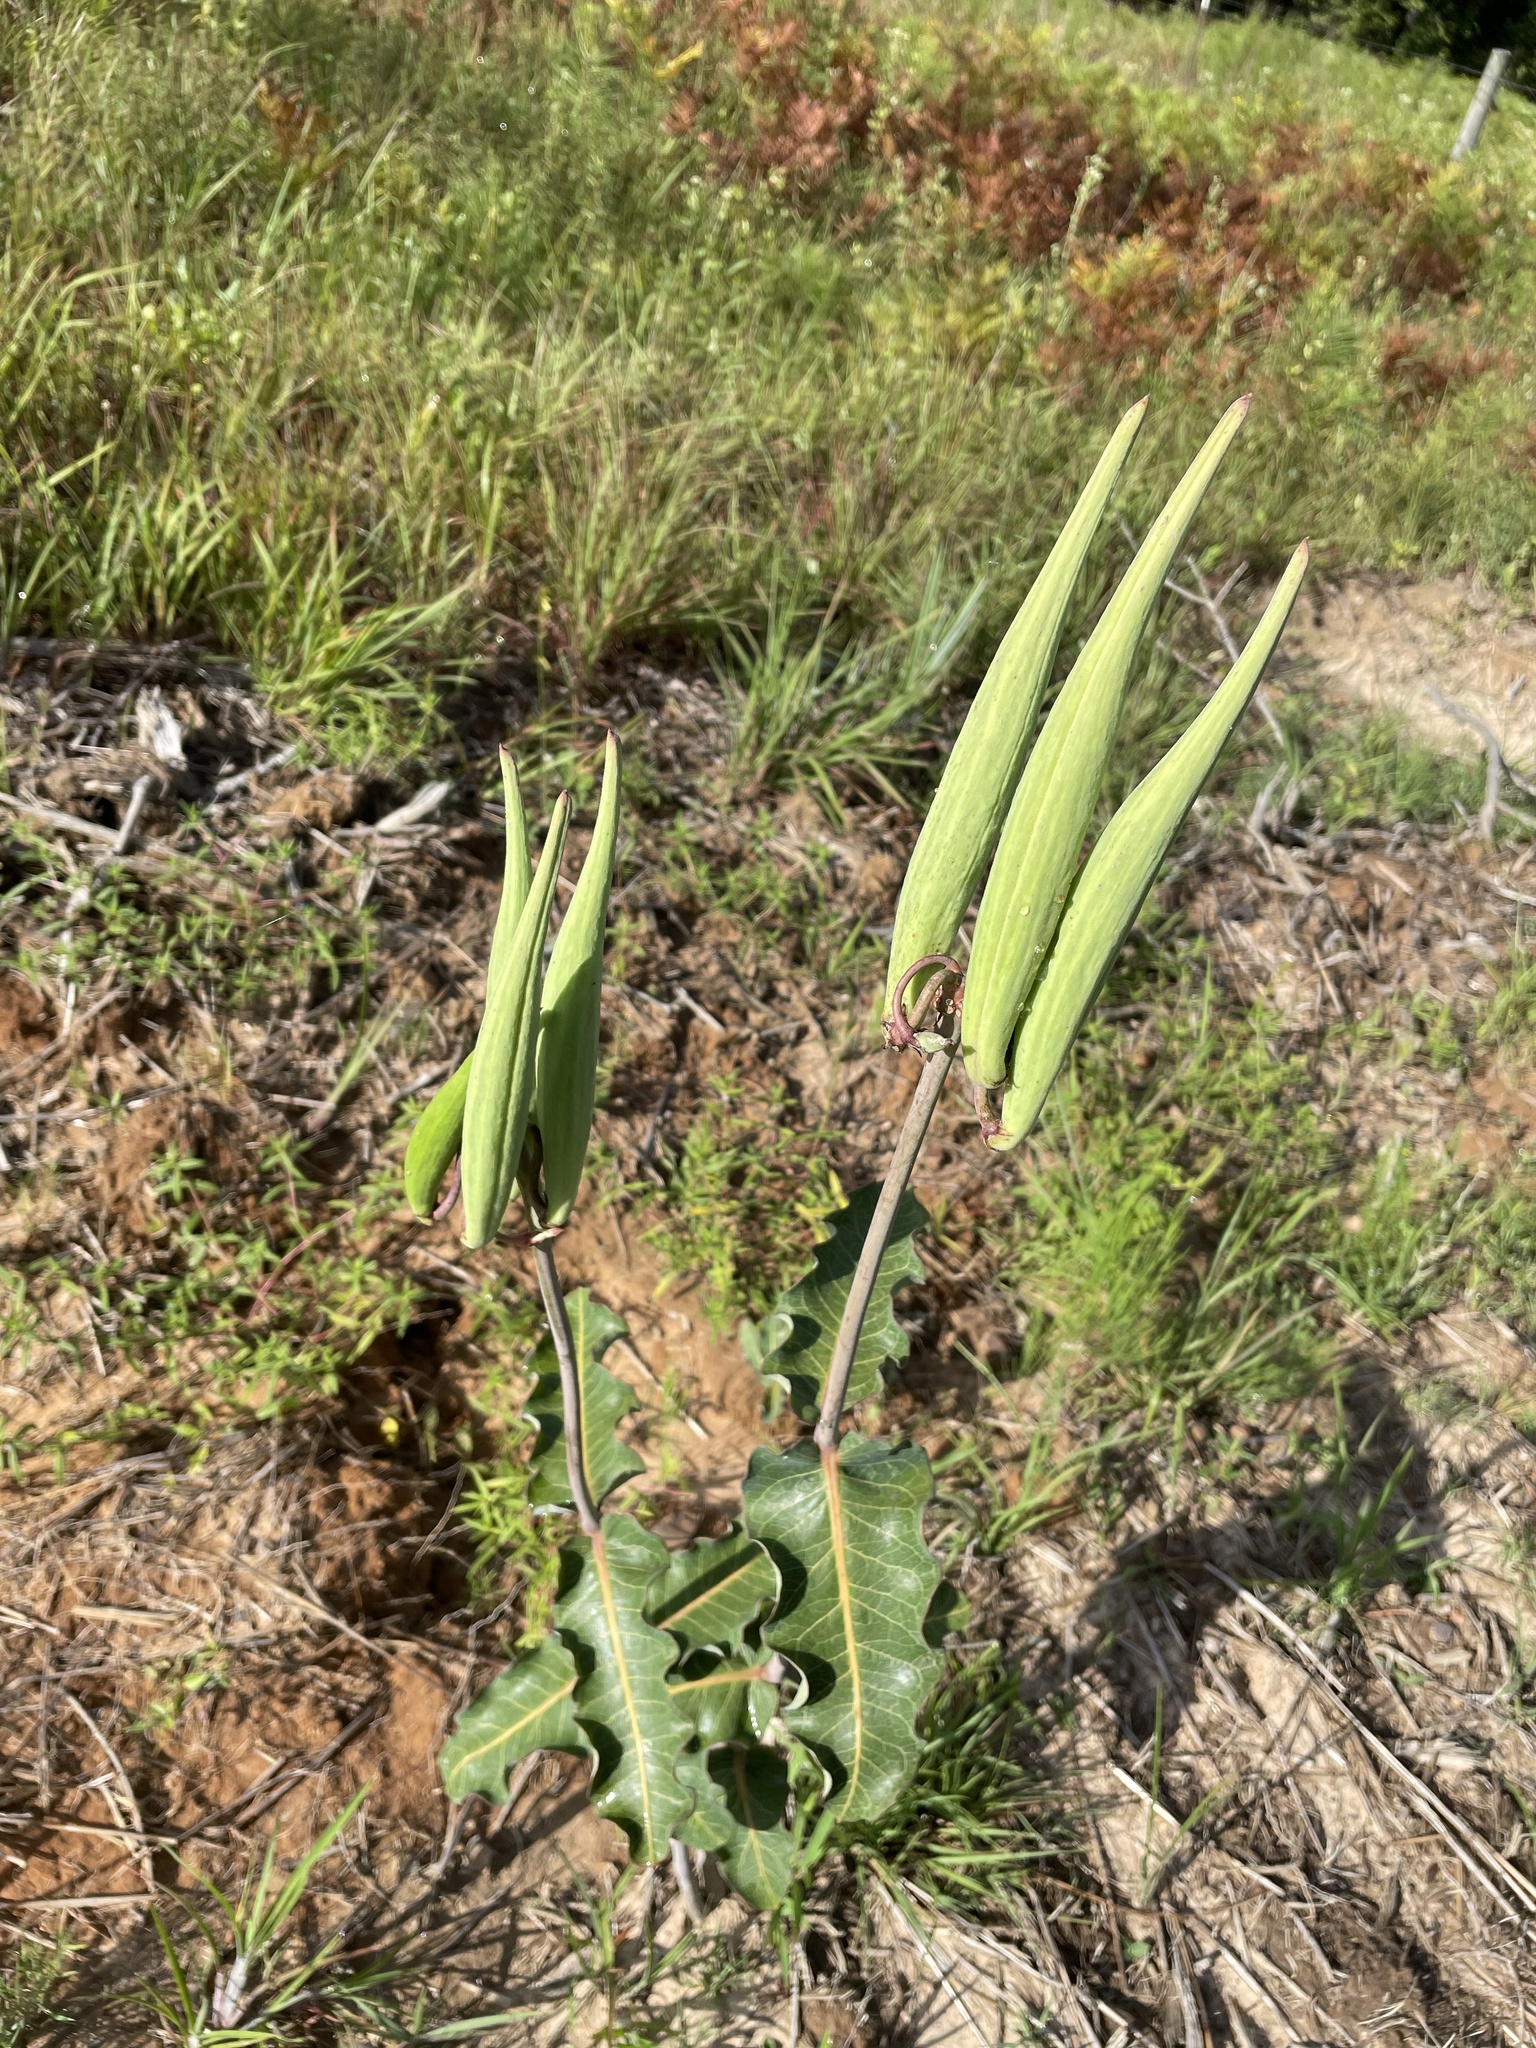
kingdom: Plantae
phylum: Tracheophyta
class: Magnoliopsida
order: Gentianales
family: Apocynaceae
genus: Asclepias
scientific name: Asclepias amplexicaulis
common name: Blunt-leaf milkweed
